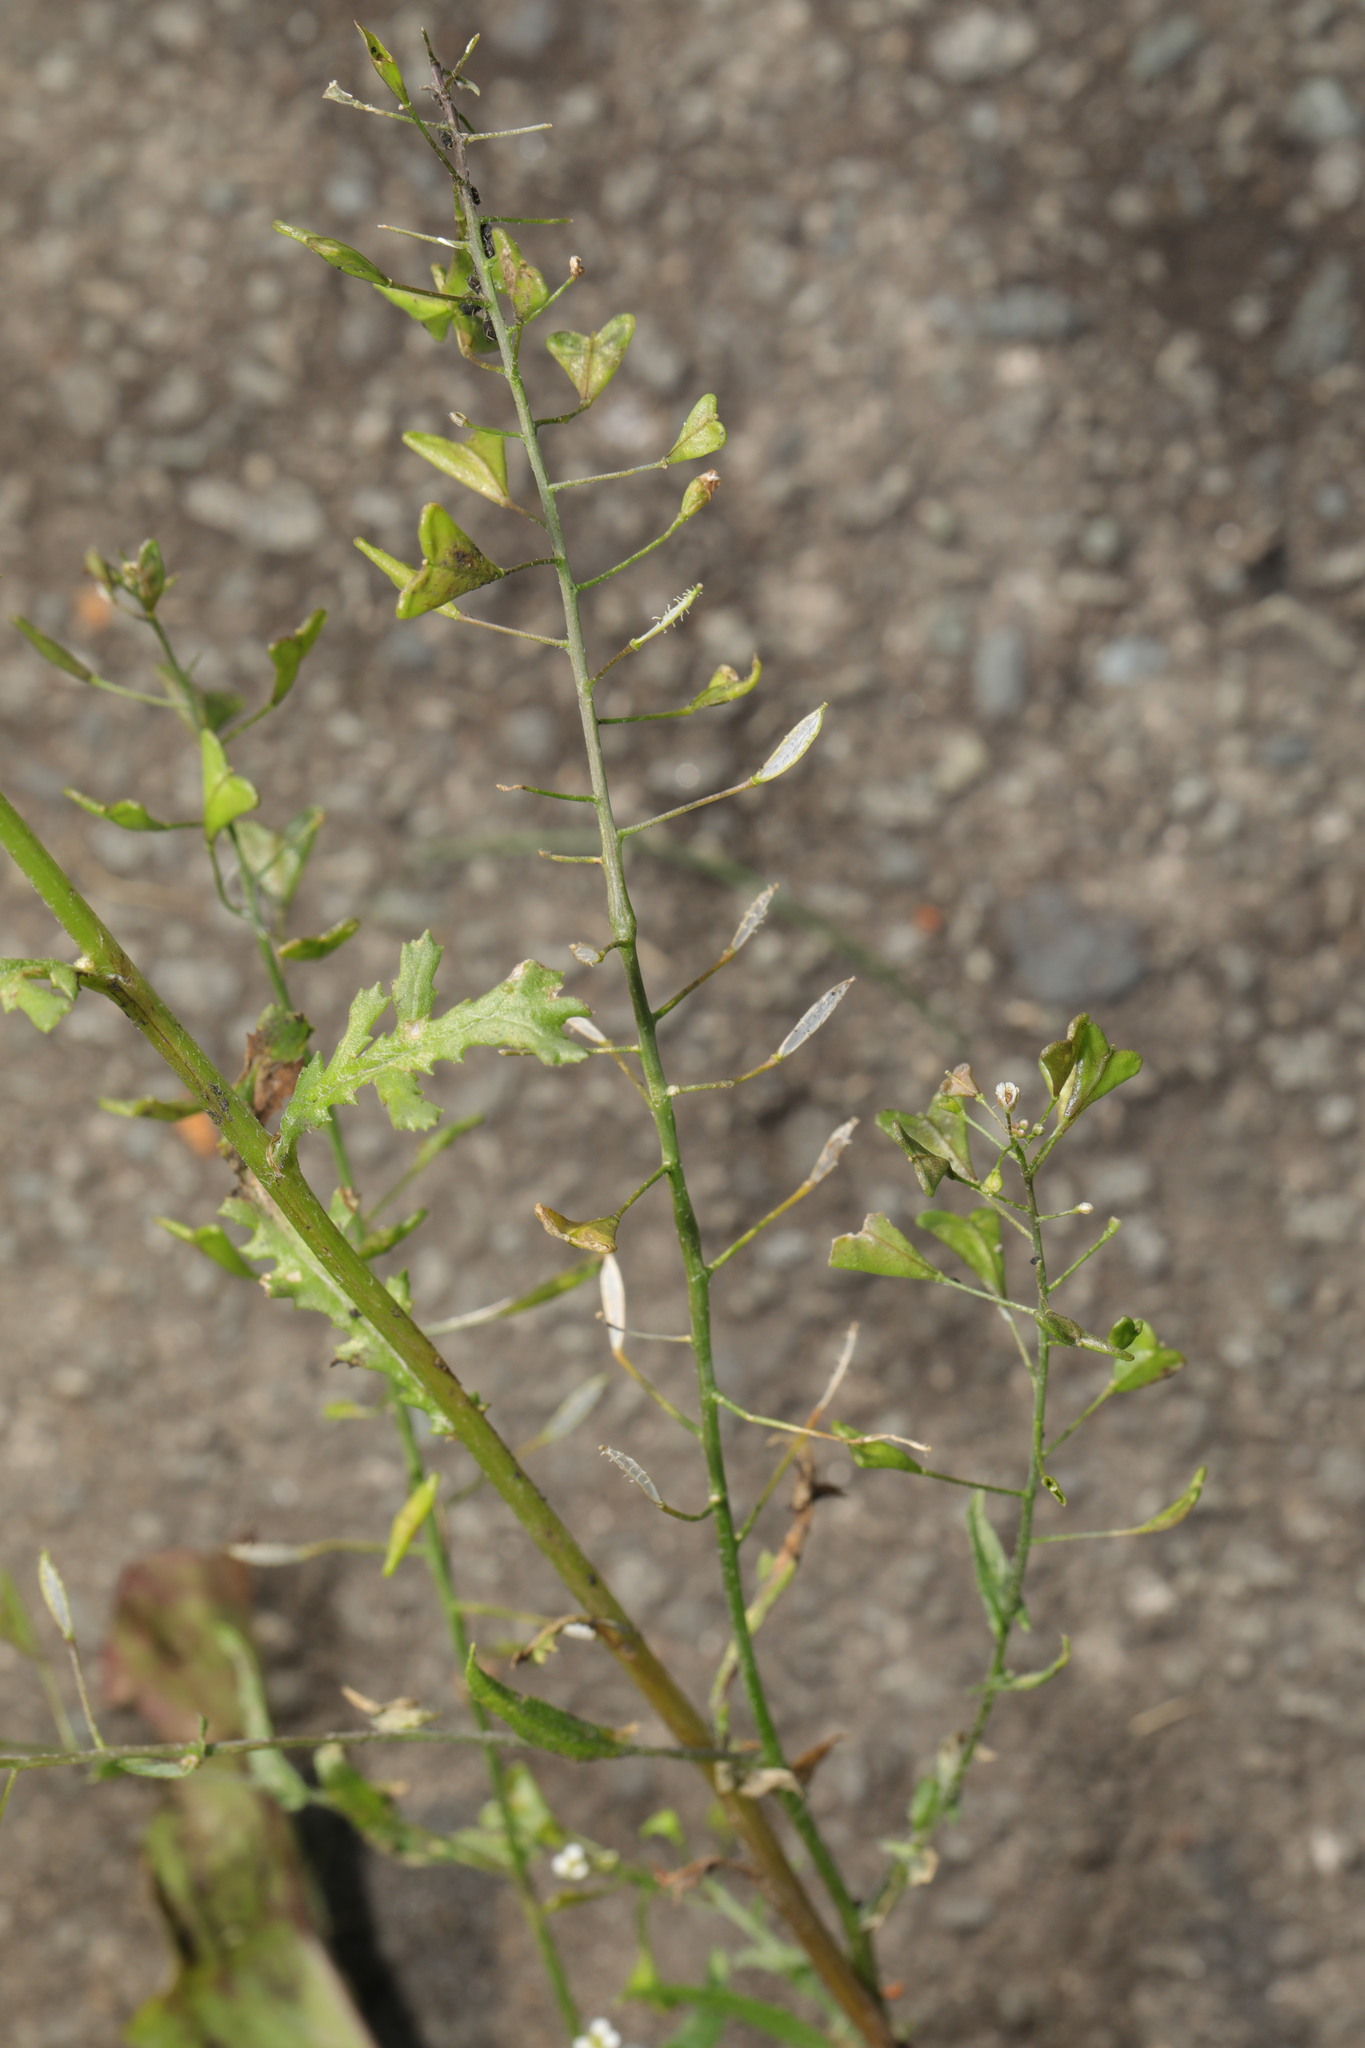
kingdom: Plantae
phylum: Tracheophyta
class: Magnoliopsida
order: Brassicales
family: Brassicaceae
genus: Capsella
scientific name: Capsella bursa-pastoris
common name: Shepherd's purse
